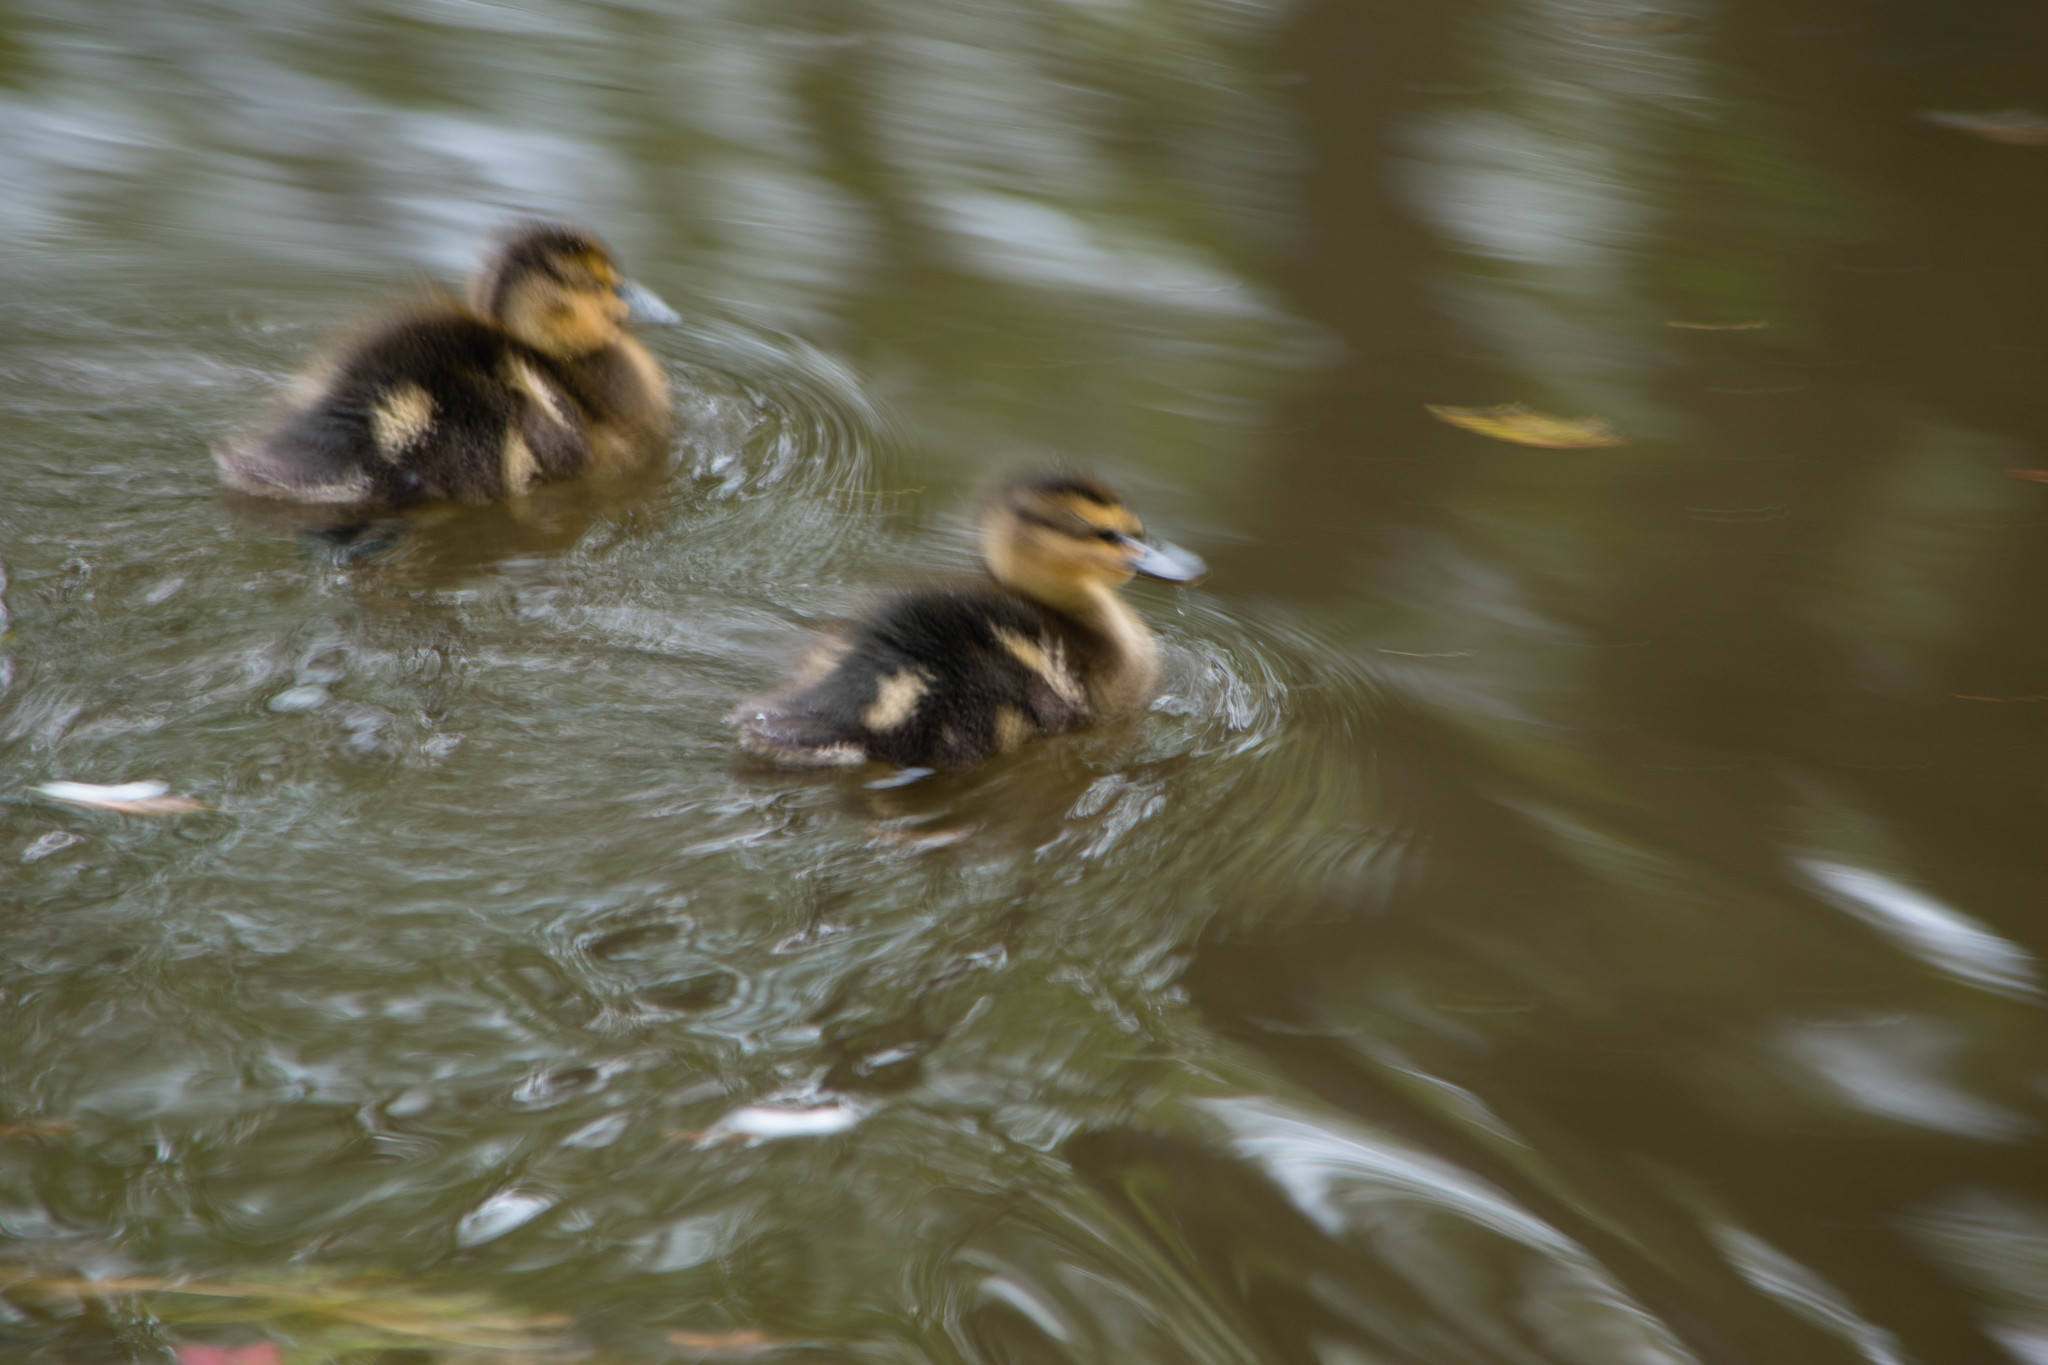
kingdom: Animalia
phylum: Chordata
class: Aves
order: Anseriformes
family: Anatidae
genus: Anas
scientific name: Anas platyrhynchos
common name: Mallard
